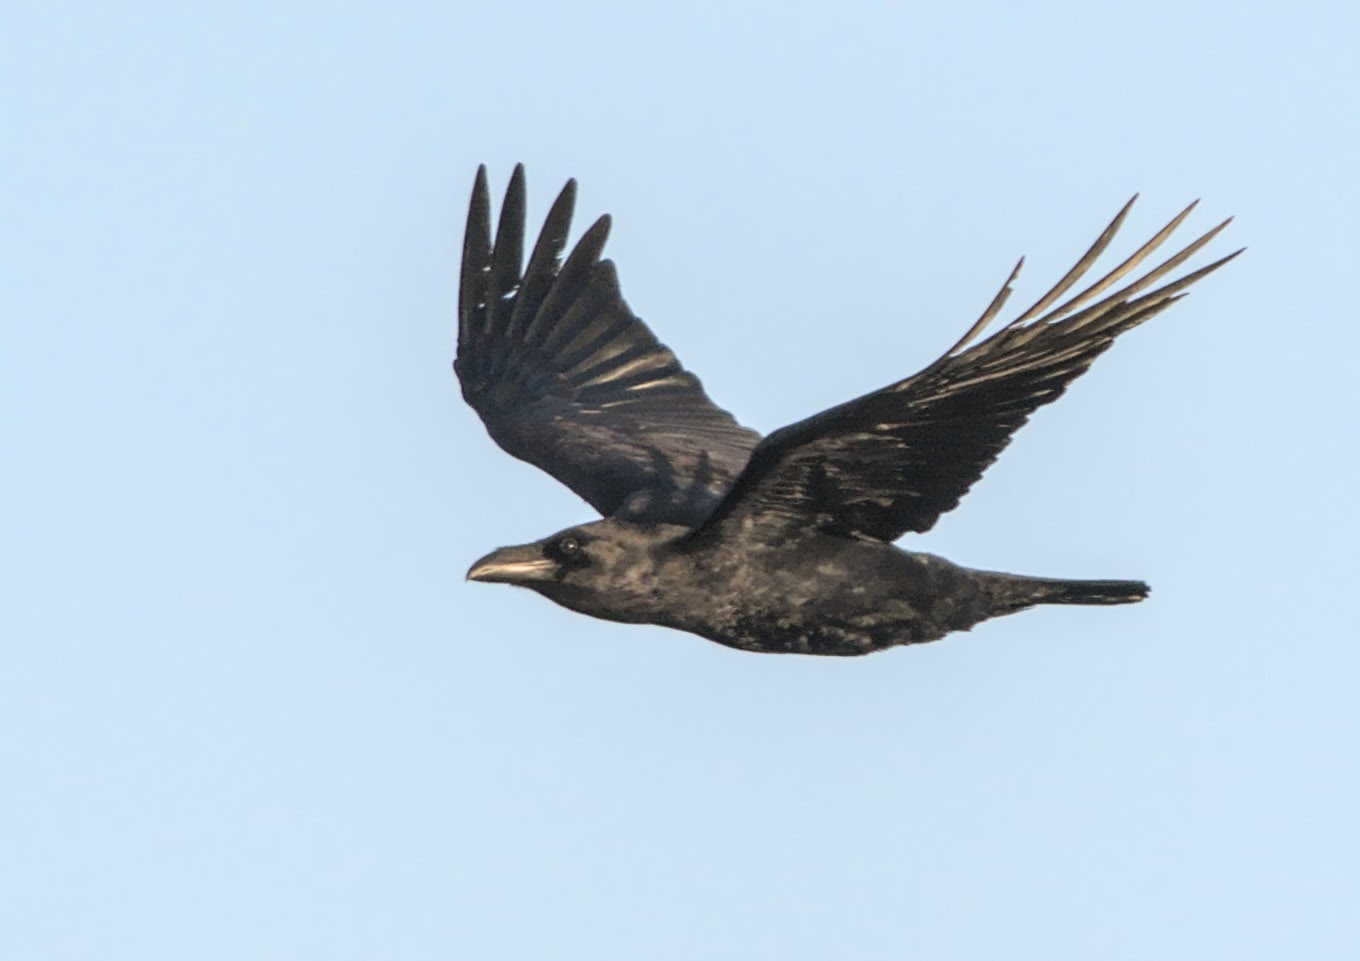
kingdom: Animalia
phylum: Chordata
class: Aves
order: Passeriformes
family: Corvidae
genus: Corvus
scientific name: Corvus corax
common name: Common raven
